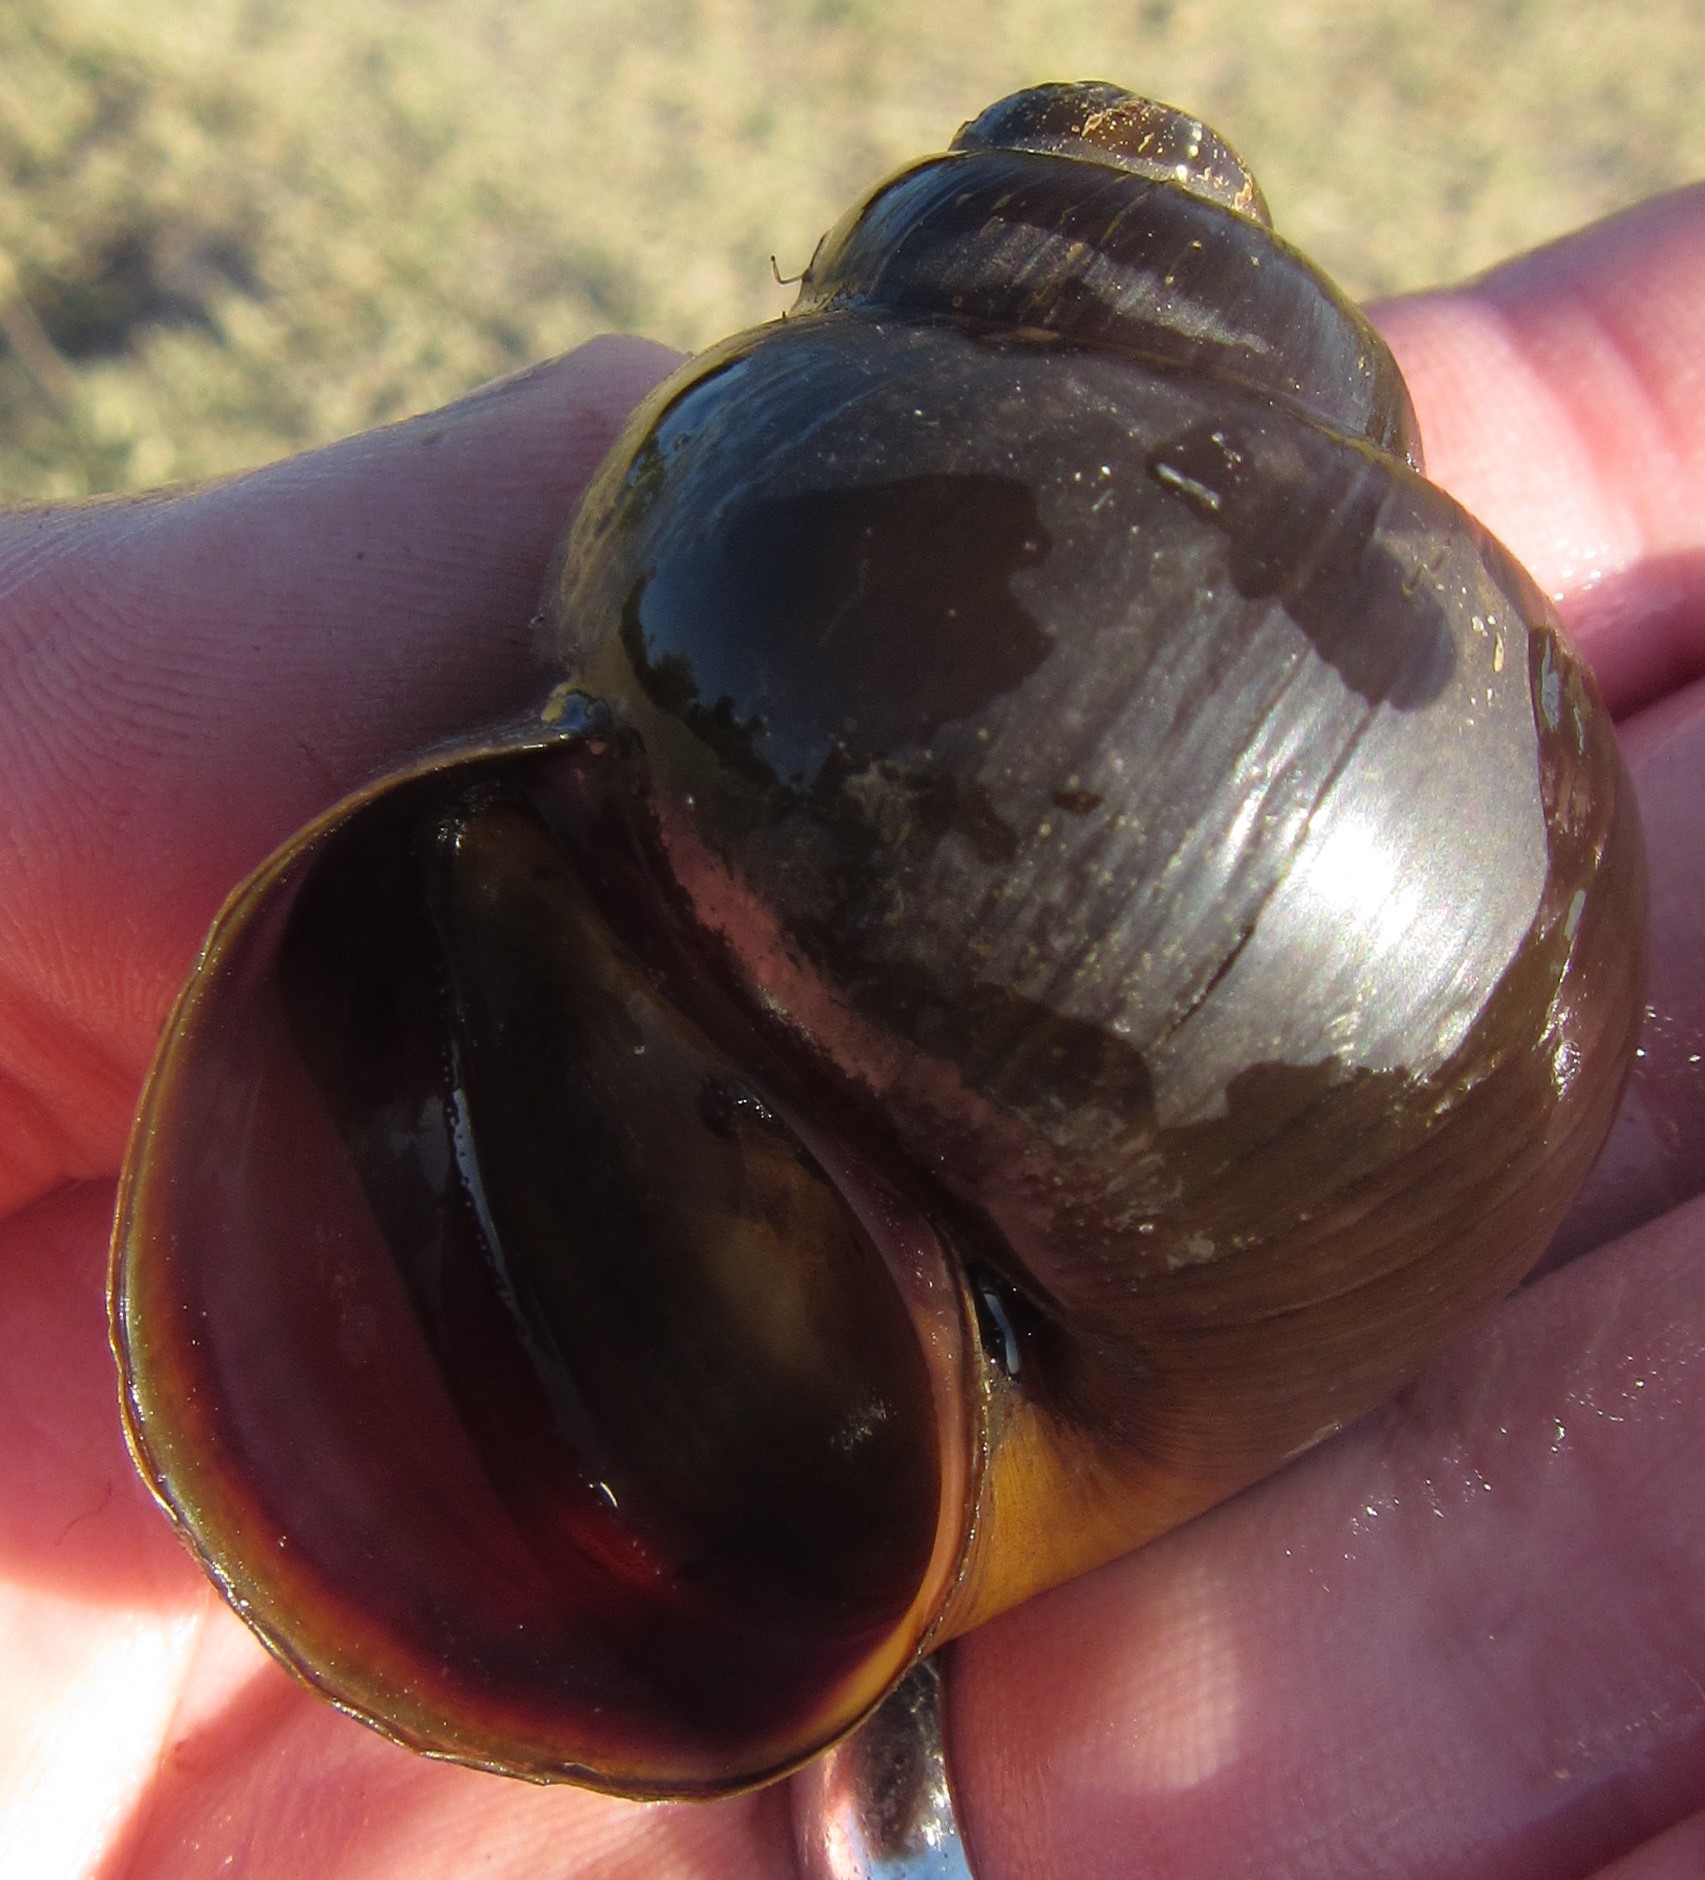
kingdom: Animalia
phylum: Mollusca
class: Gastropoda
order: Architaenioglossa
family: Ampullariidae
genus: Lanistes
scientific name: Lanistes ovum
